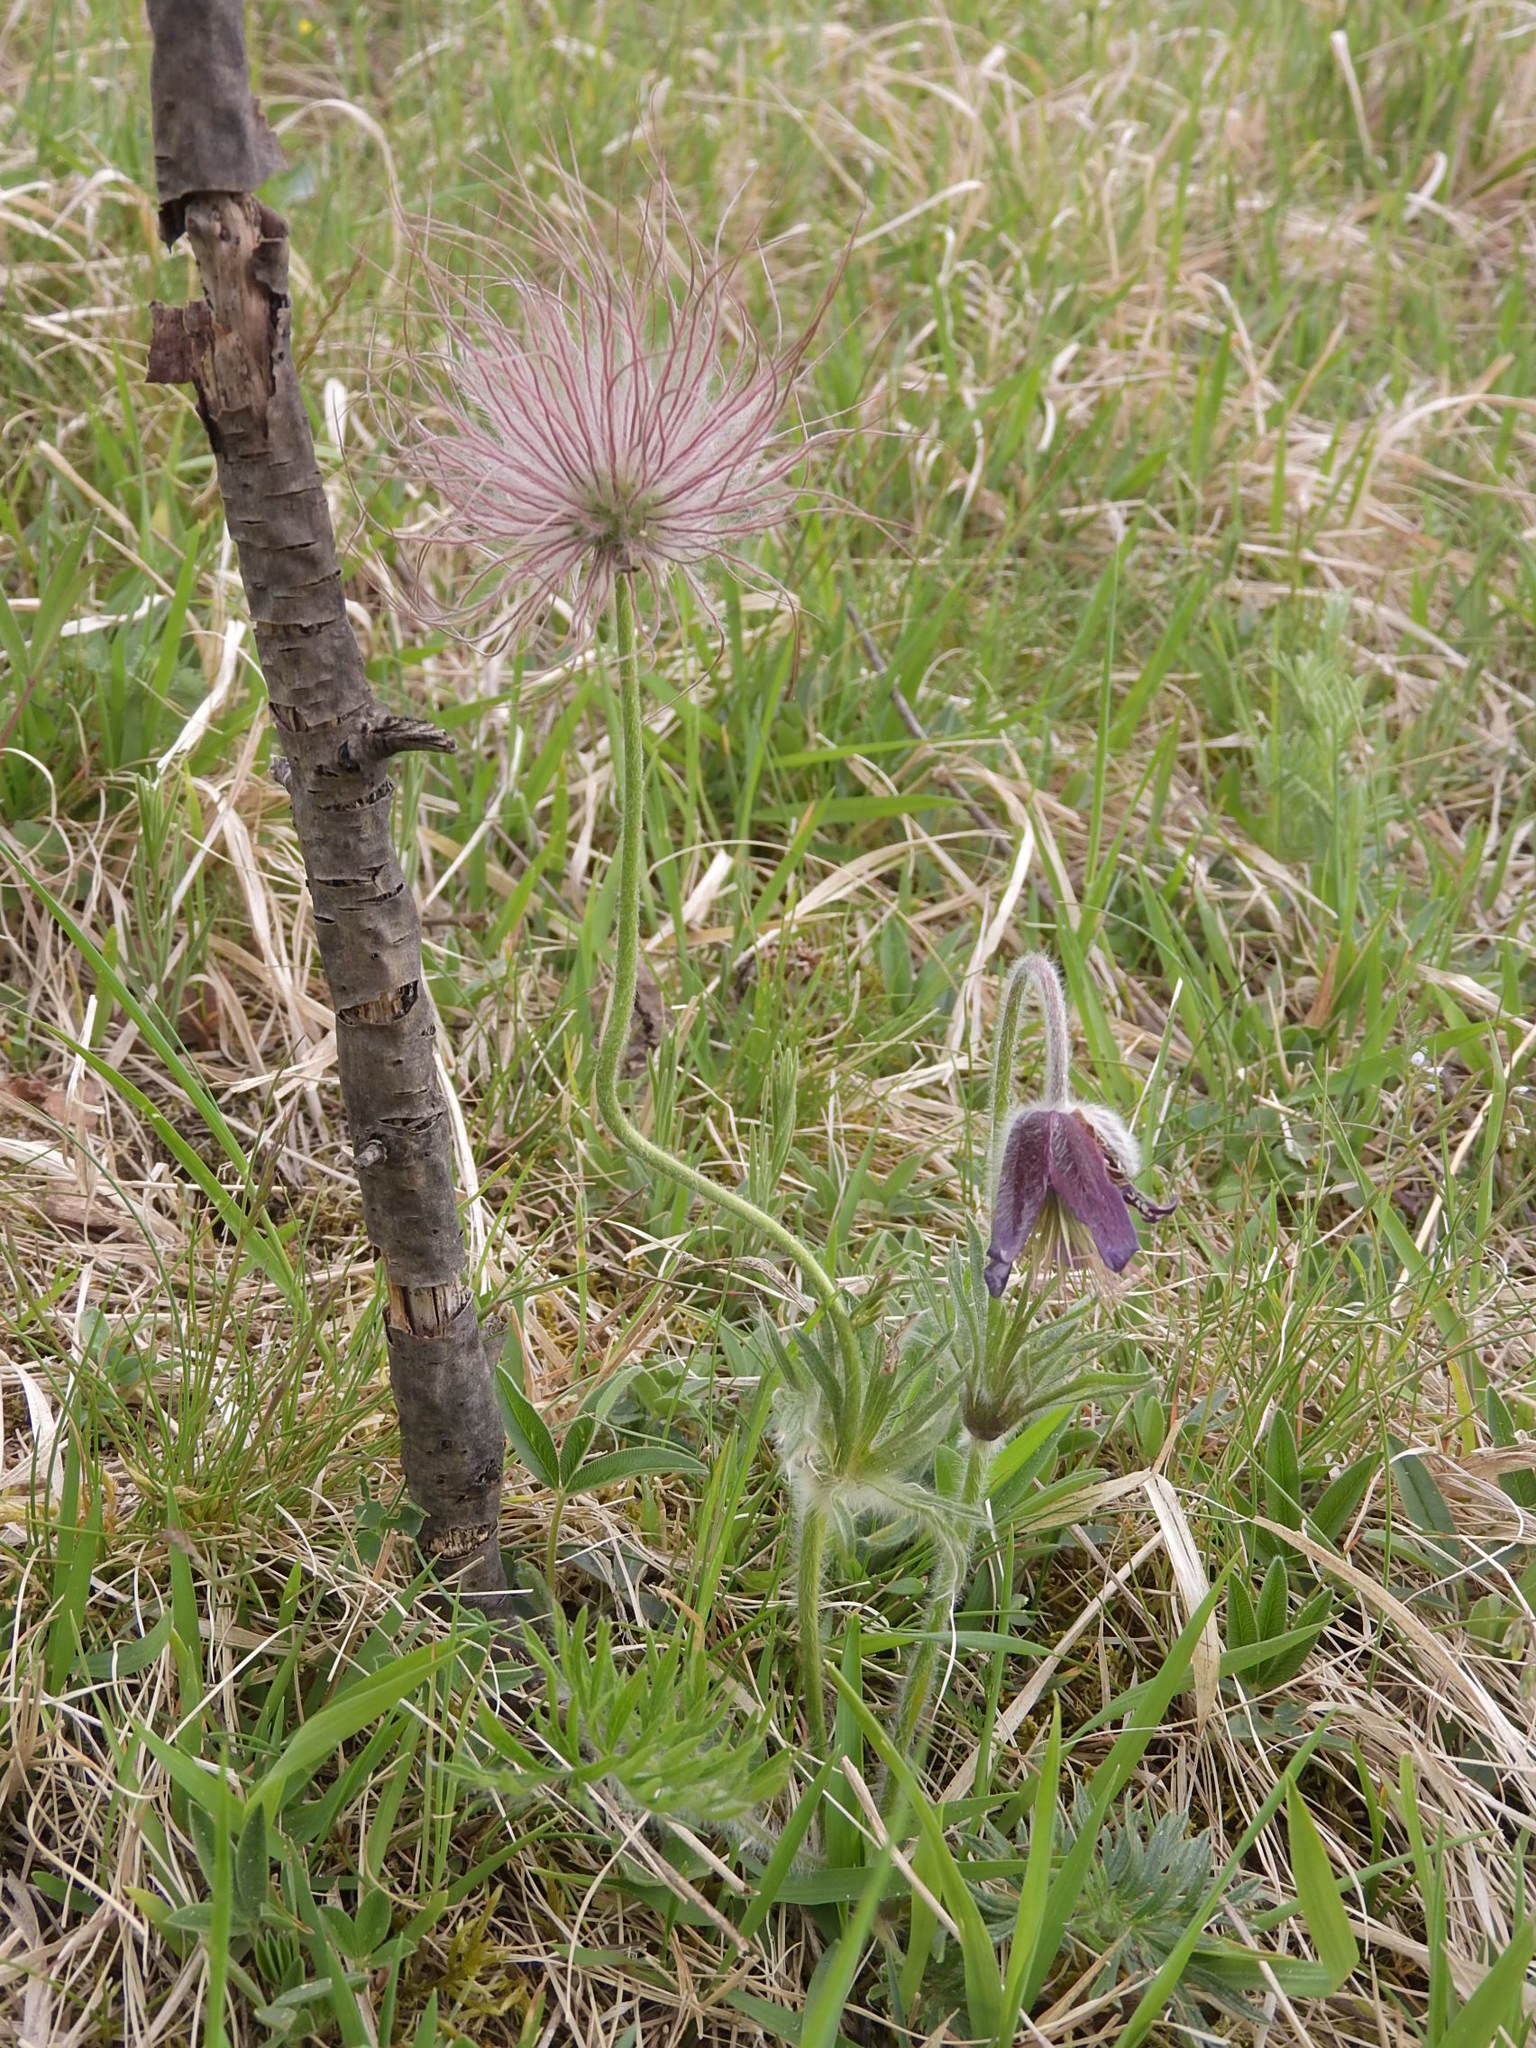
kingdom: Plantae
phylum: Tracheophyta
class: Magnoliopsida
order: Ranunculales
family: Ranunculaceae
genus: Pulsatilla
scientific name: Pulsatilla pratensis
